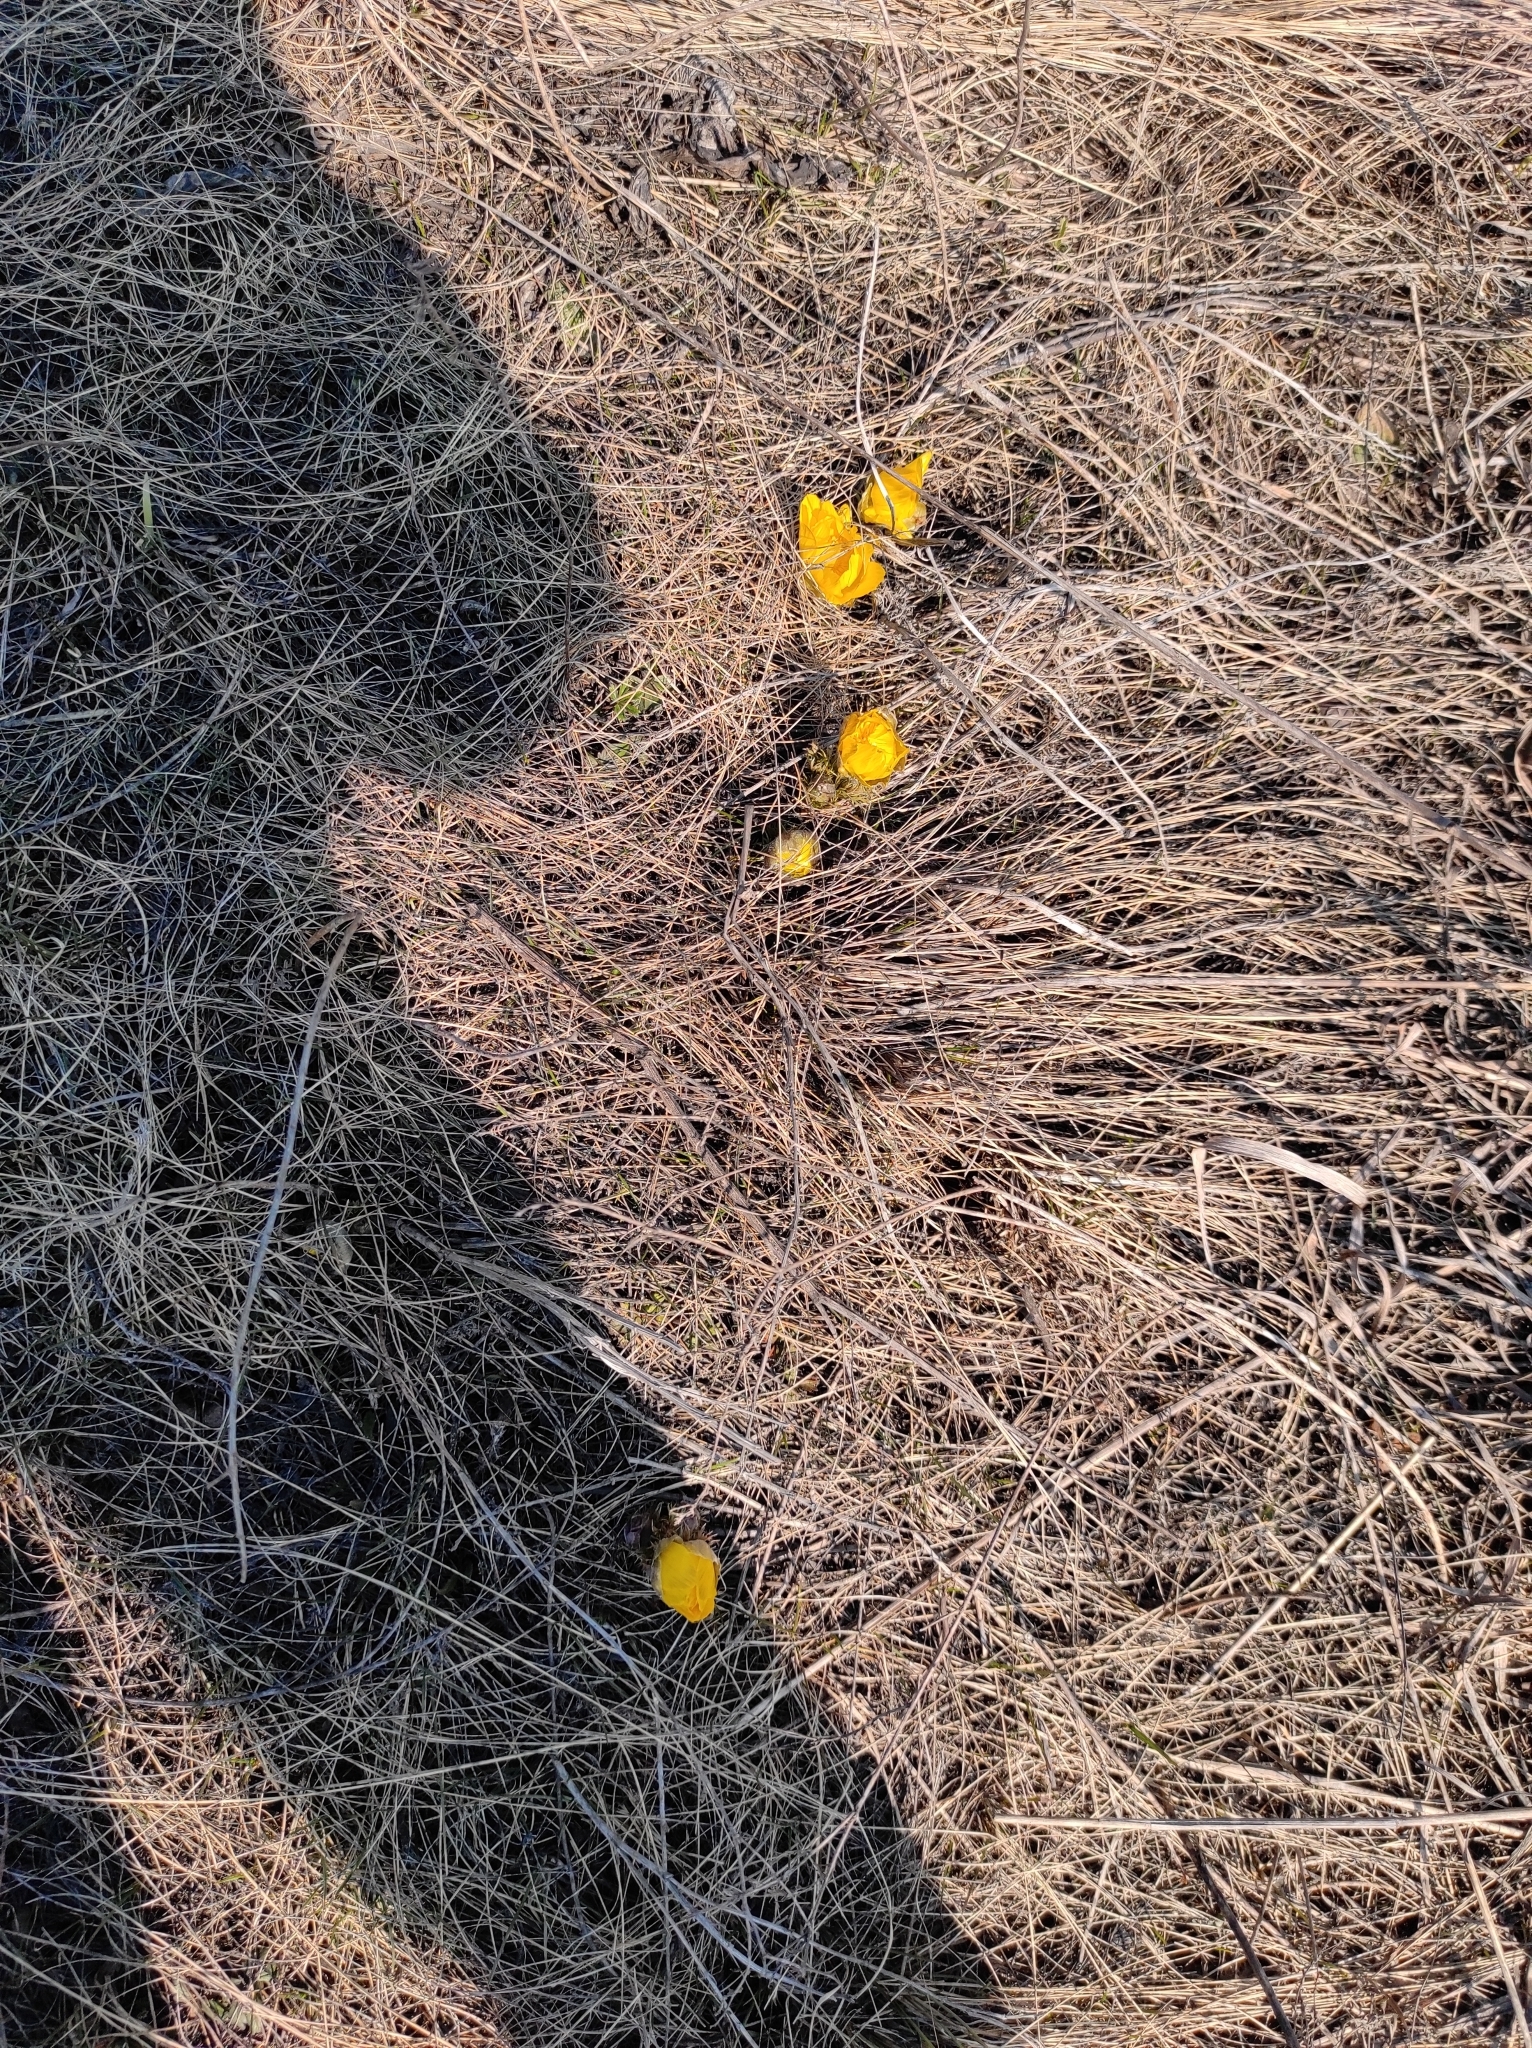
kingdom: Plantae
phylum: Tracheophyta
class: Magnoliopsida
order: Ranunculales
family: Ranunculaceae
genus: Adonis
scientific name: Adonis vernalis
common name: Yellow pheasants-eye
